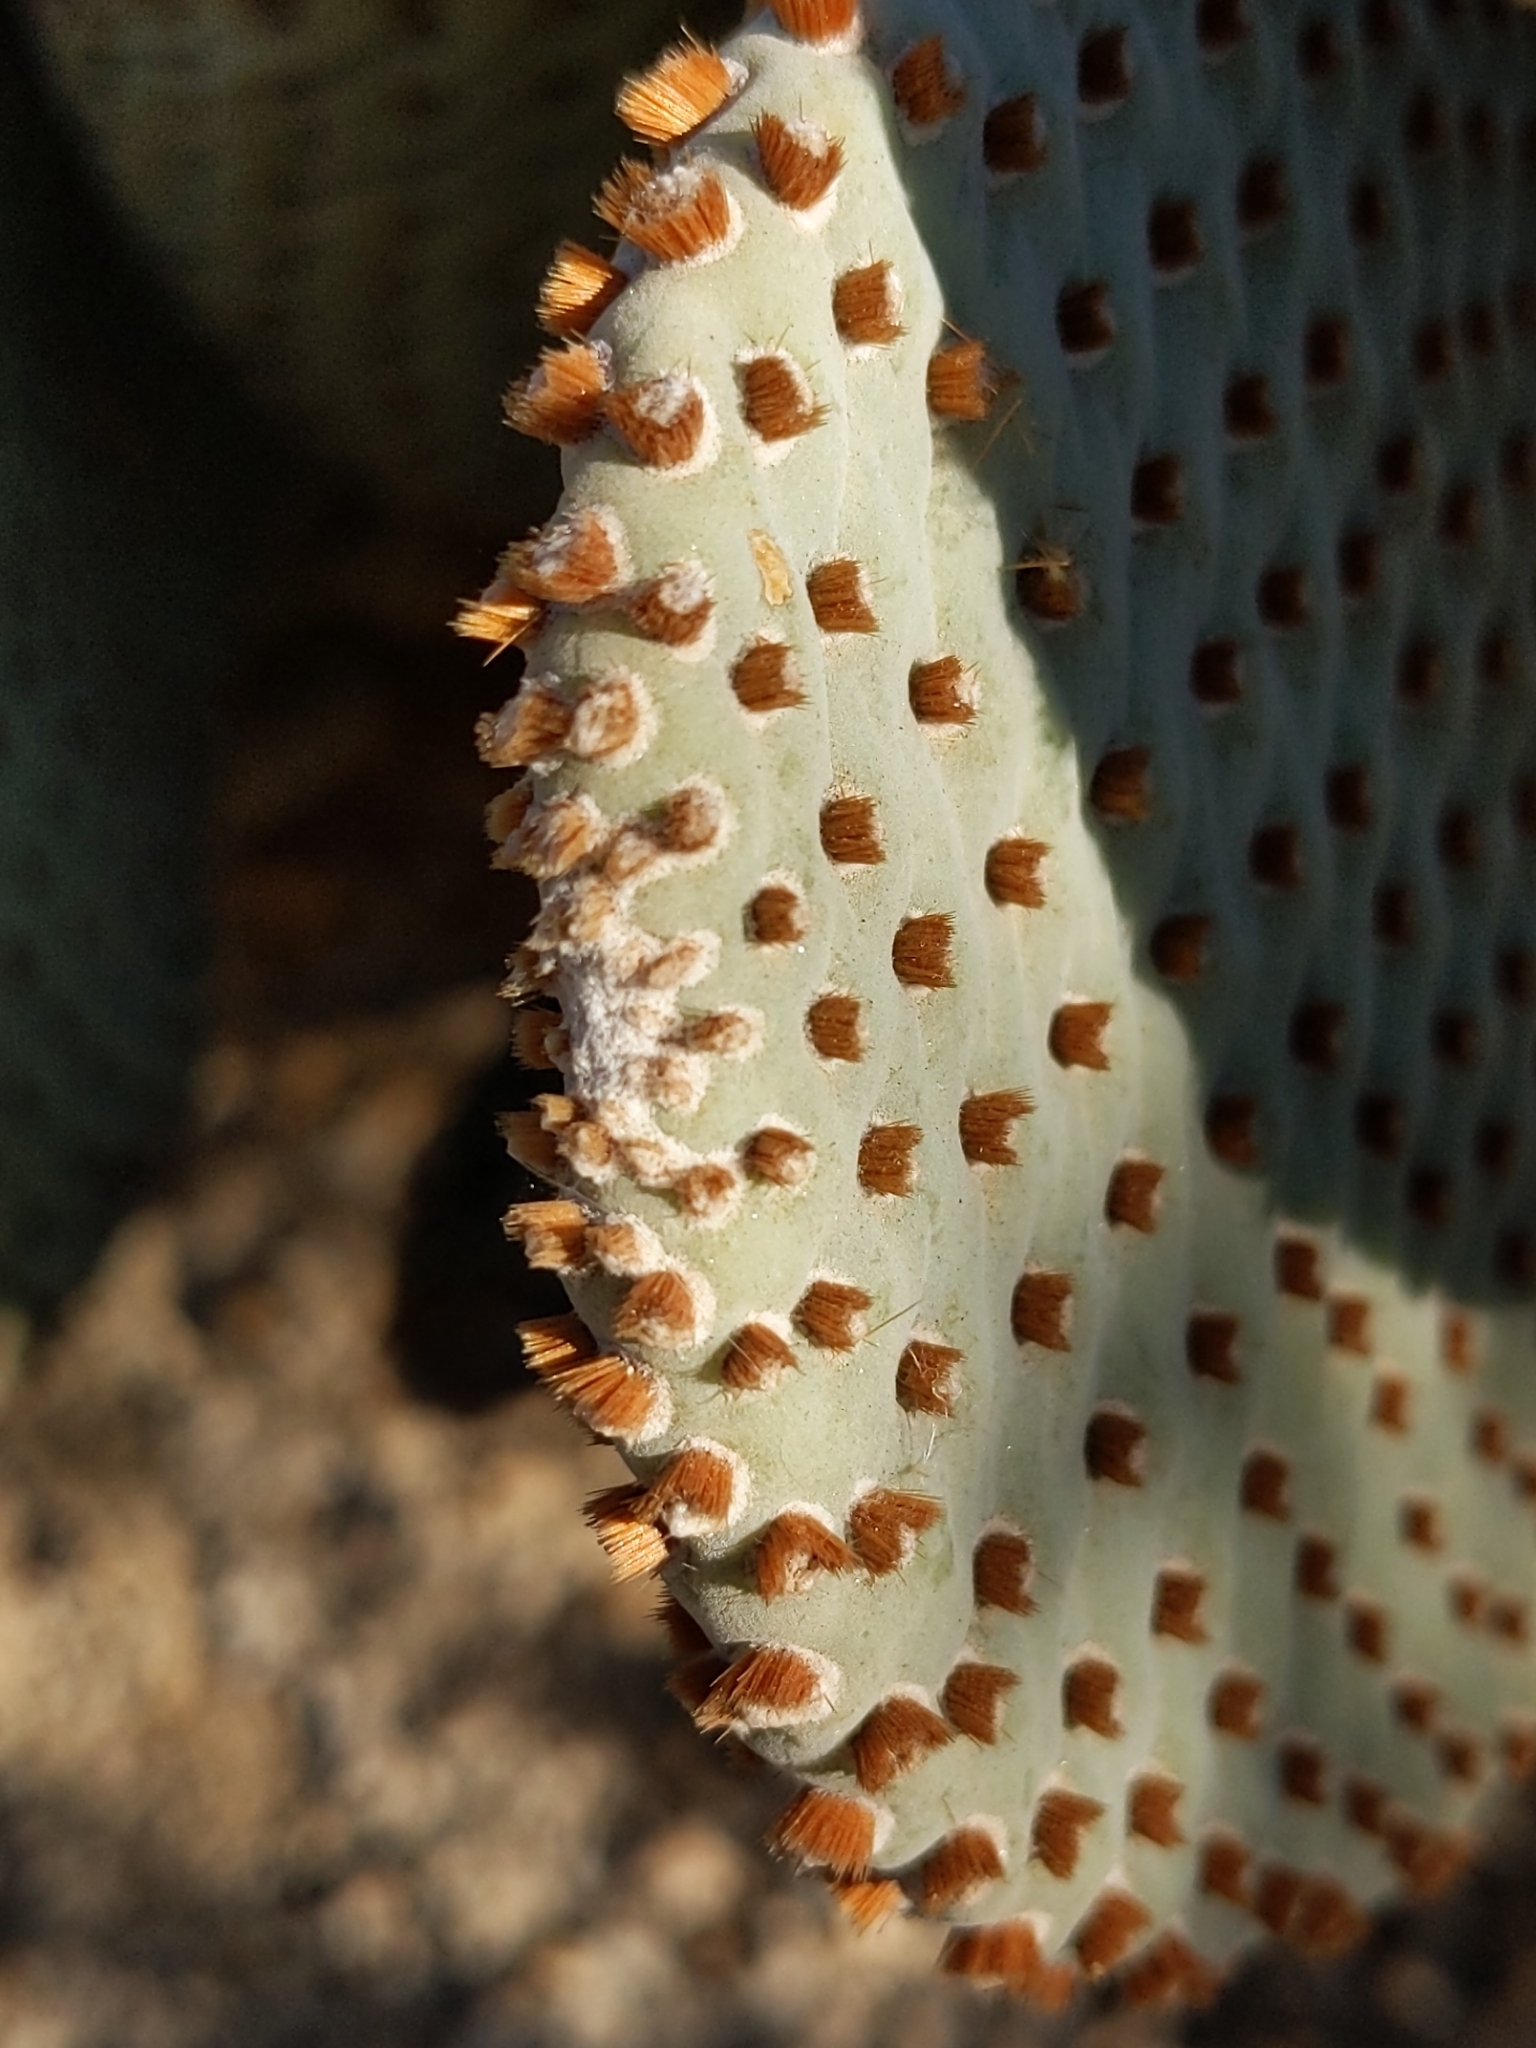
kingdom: Plantae
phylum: Tracheophyta
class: Magnoliopsida
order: Caryophyllales
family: Cactaceae
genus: Opuntia
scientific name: Opuntia basilaris
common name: Beavertail prickly-pear
